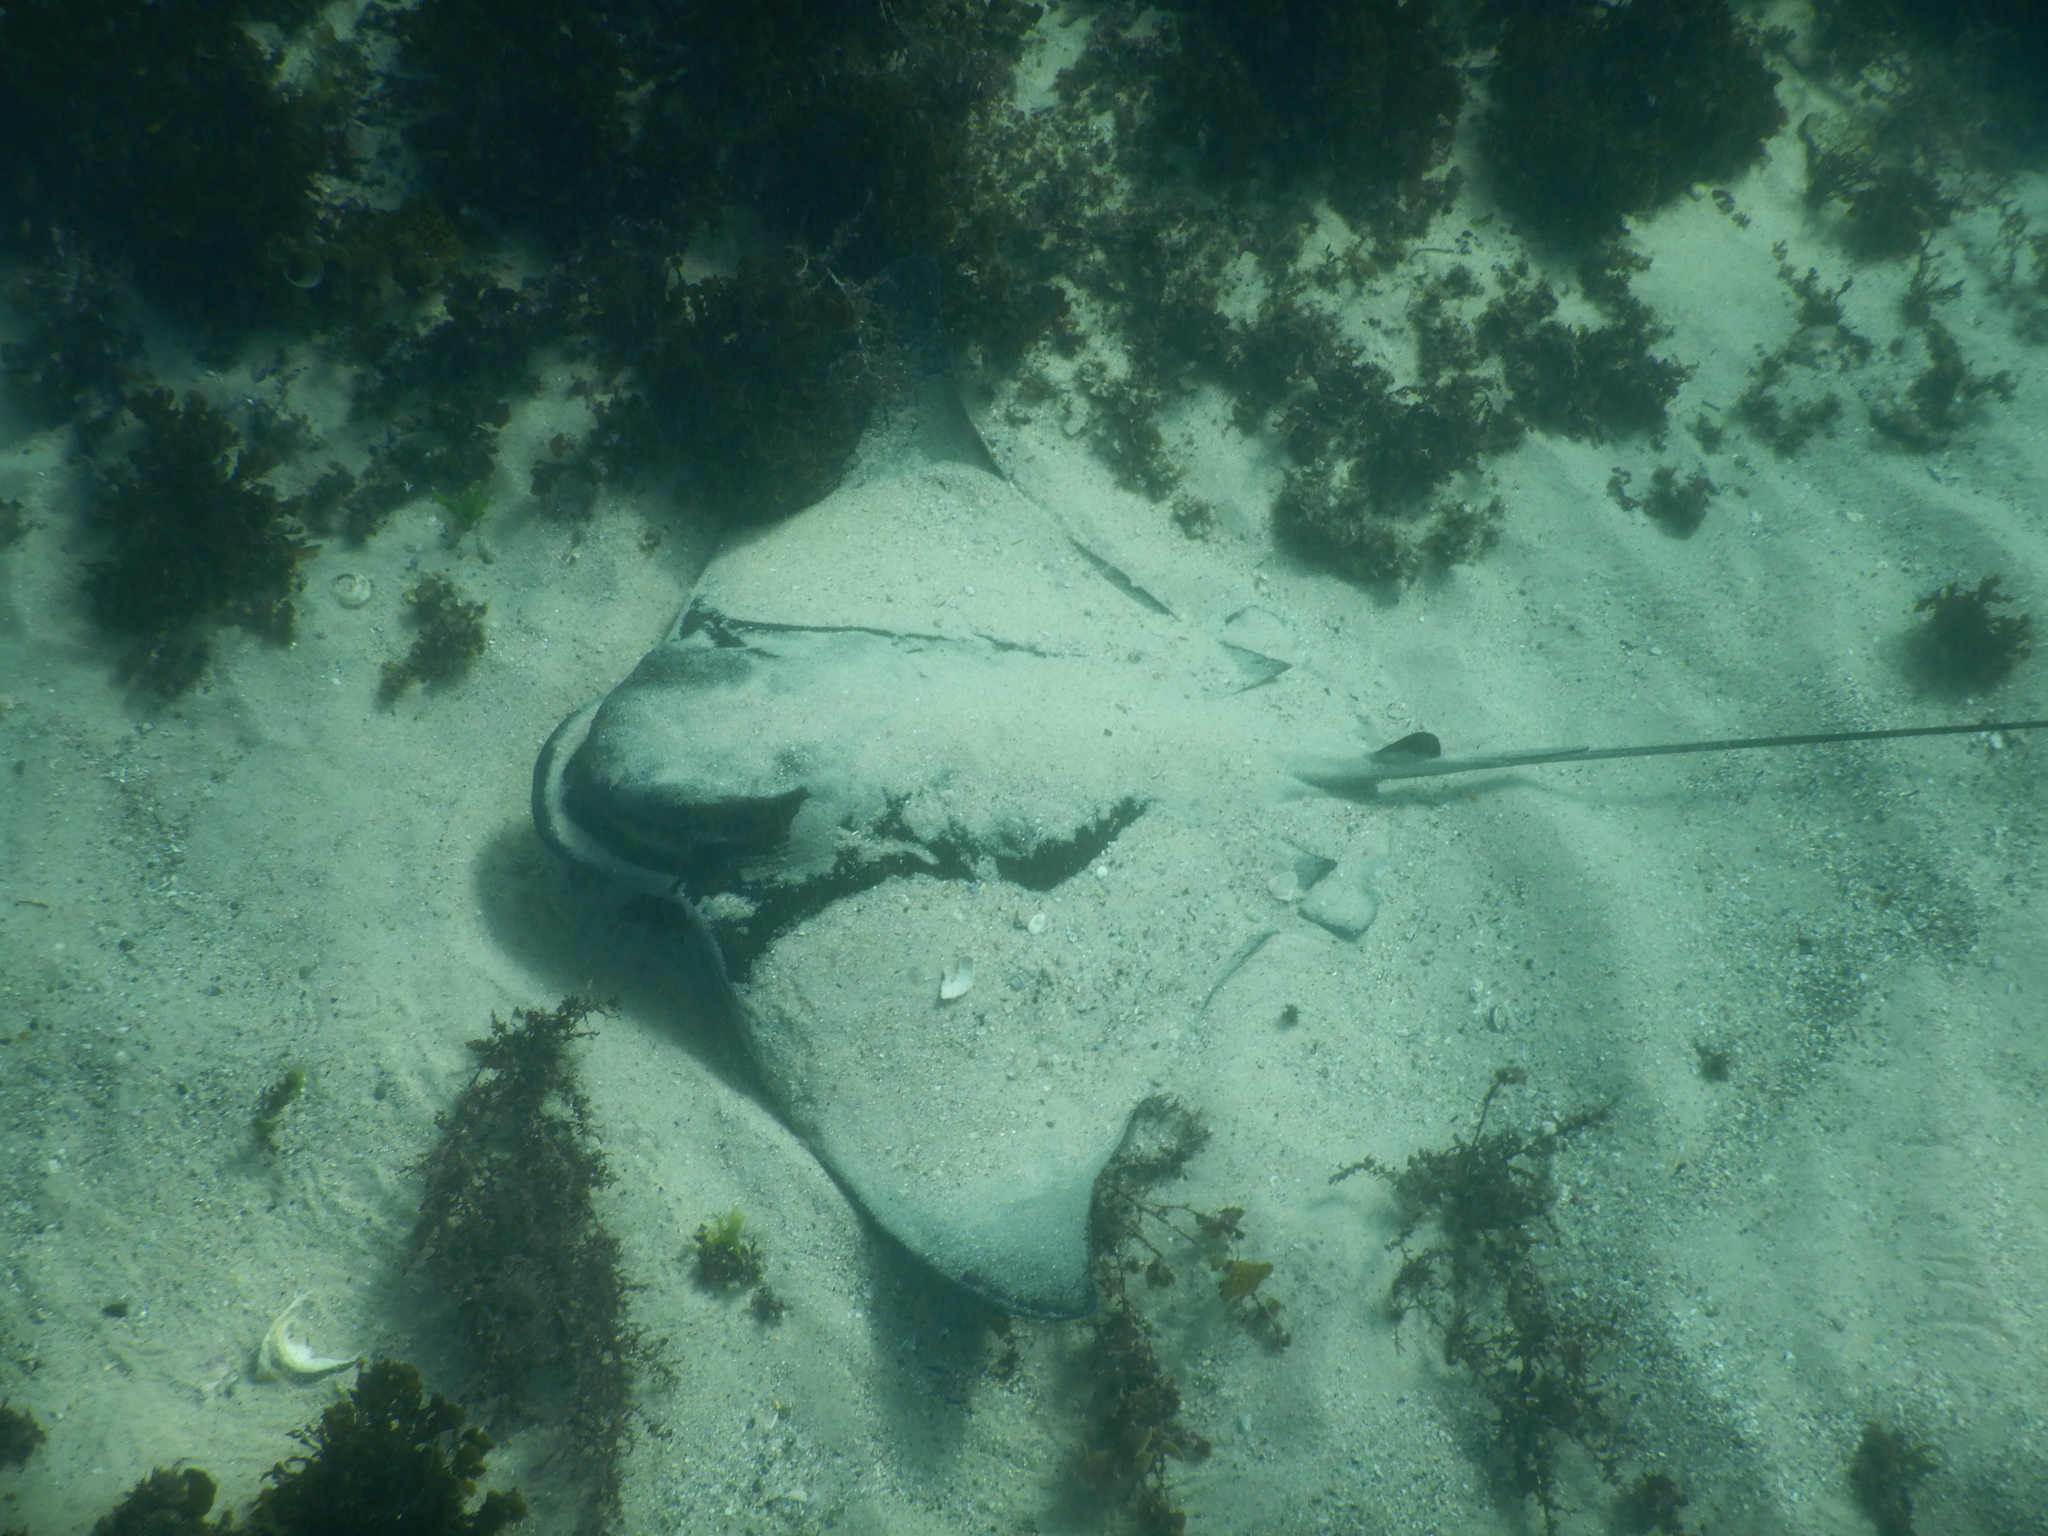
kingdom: Animalia
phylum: Chordata
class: Elasmobranchii
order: Myliobatiformes
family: Myliobatidae
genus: Myliobatis
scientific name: Myliobatis tenuicaudatus
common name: Eagle ray
